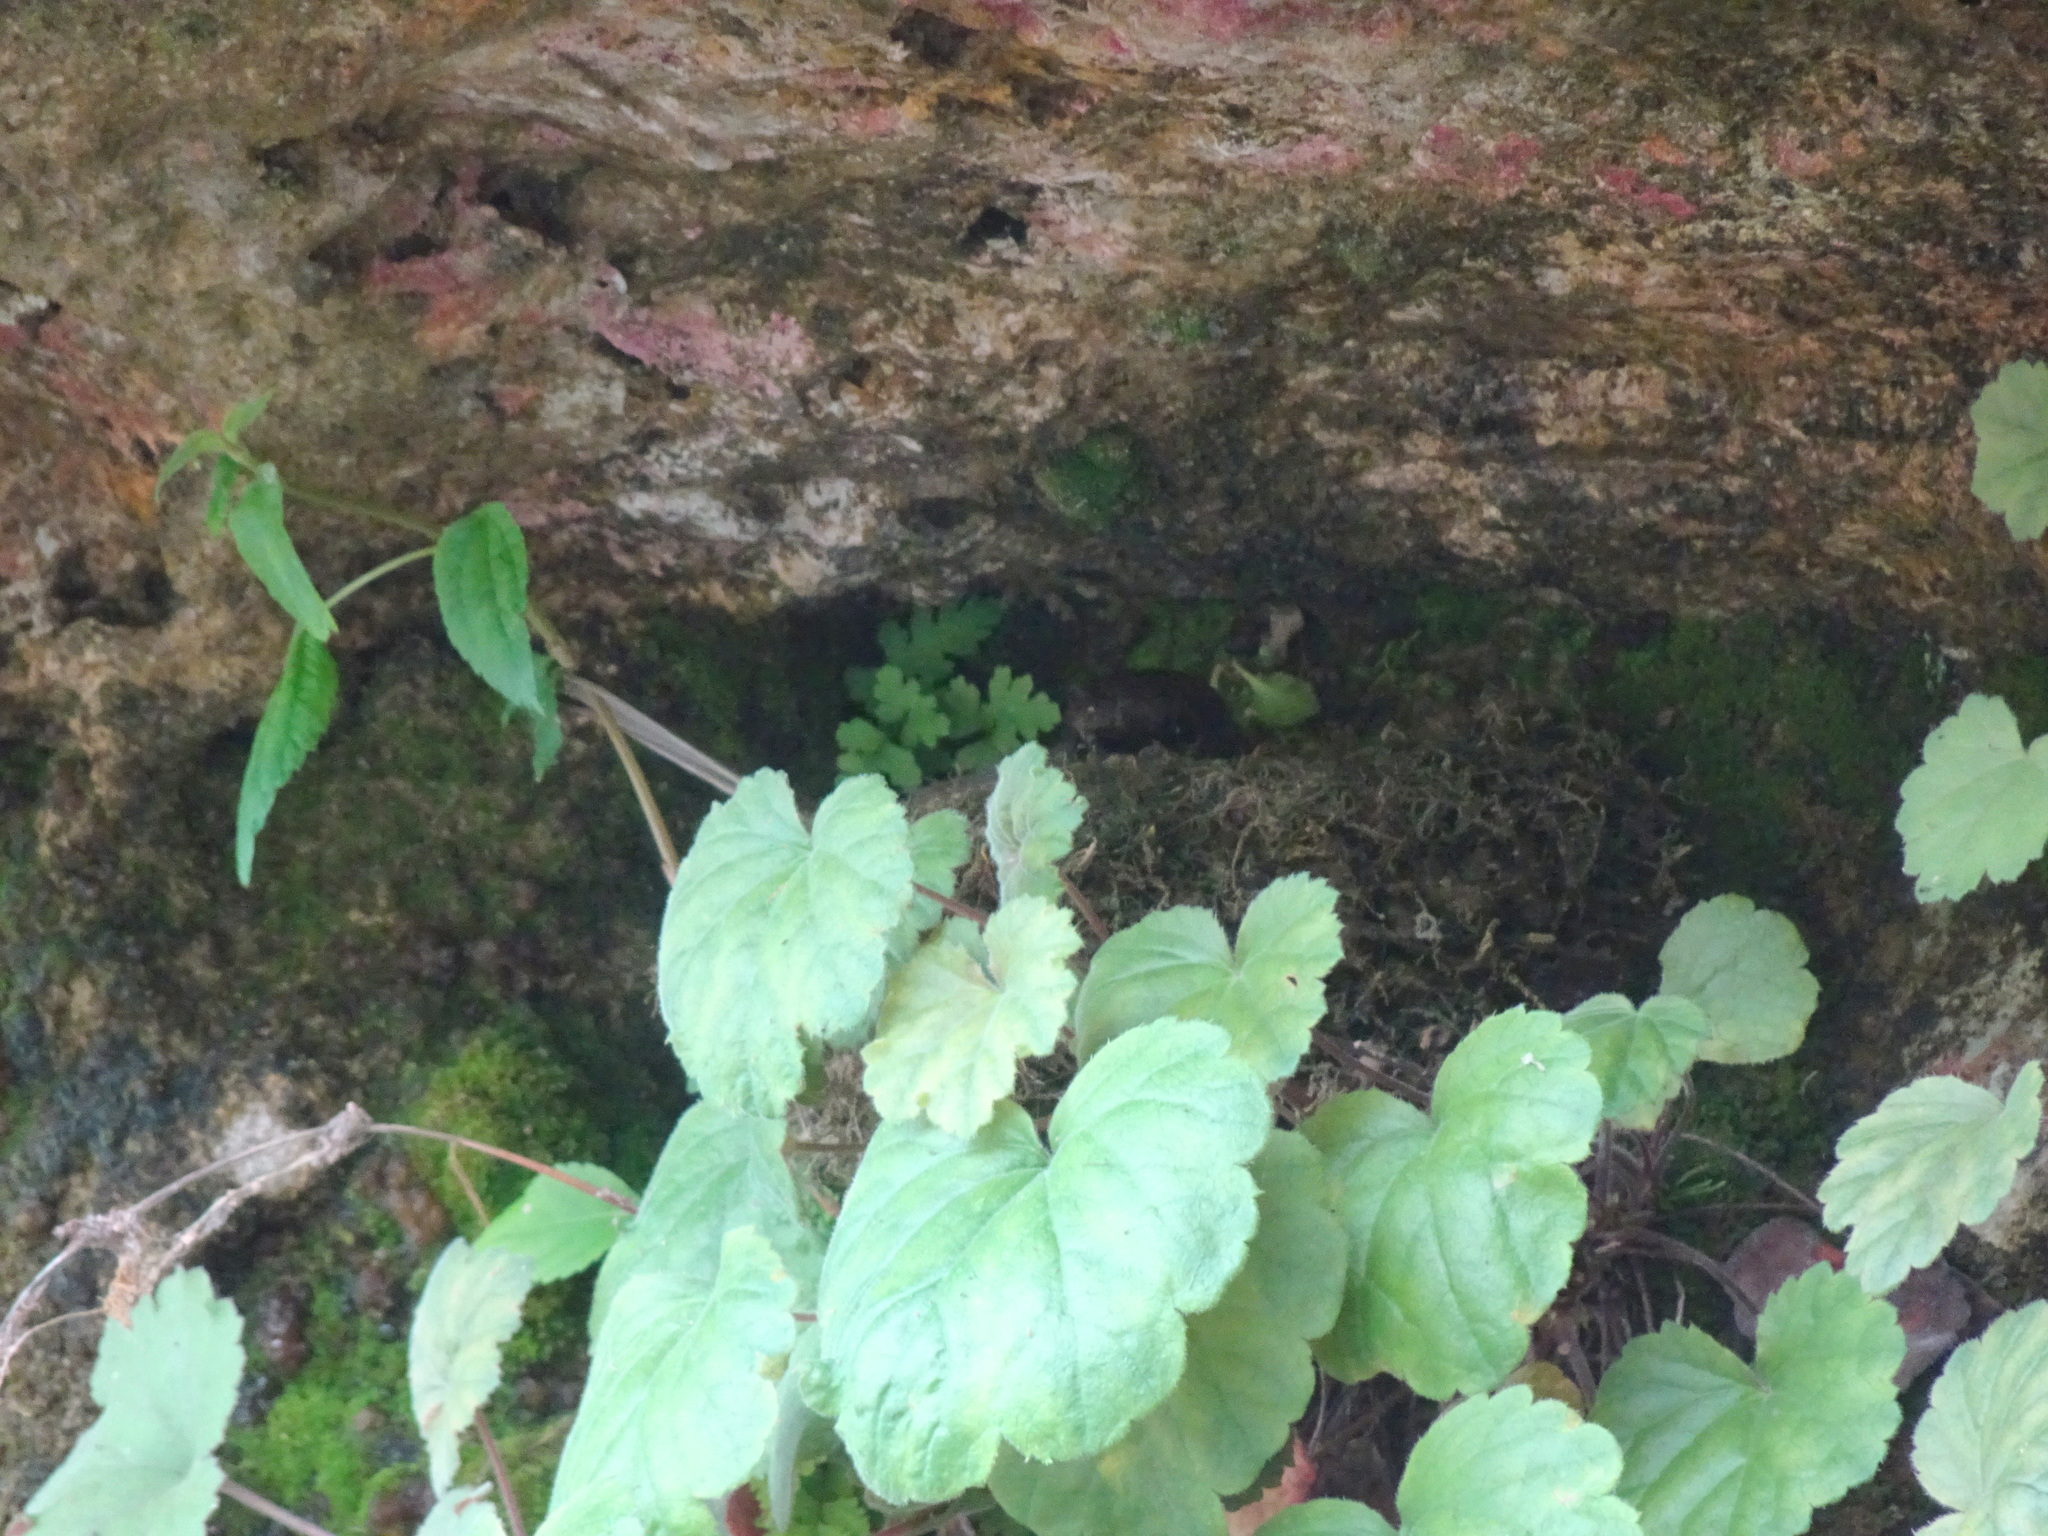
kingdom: Animalia
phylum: Chordata
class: Aves
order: Passeriformes
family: Tyrannidae
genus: Sayornis
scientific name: Sayornis phoebe
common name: Eastern phoebe
